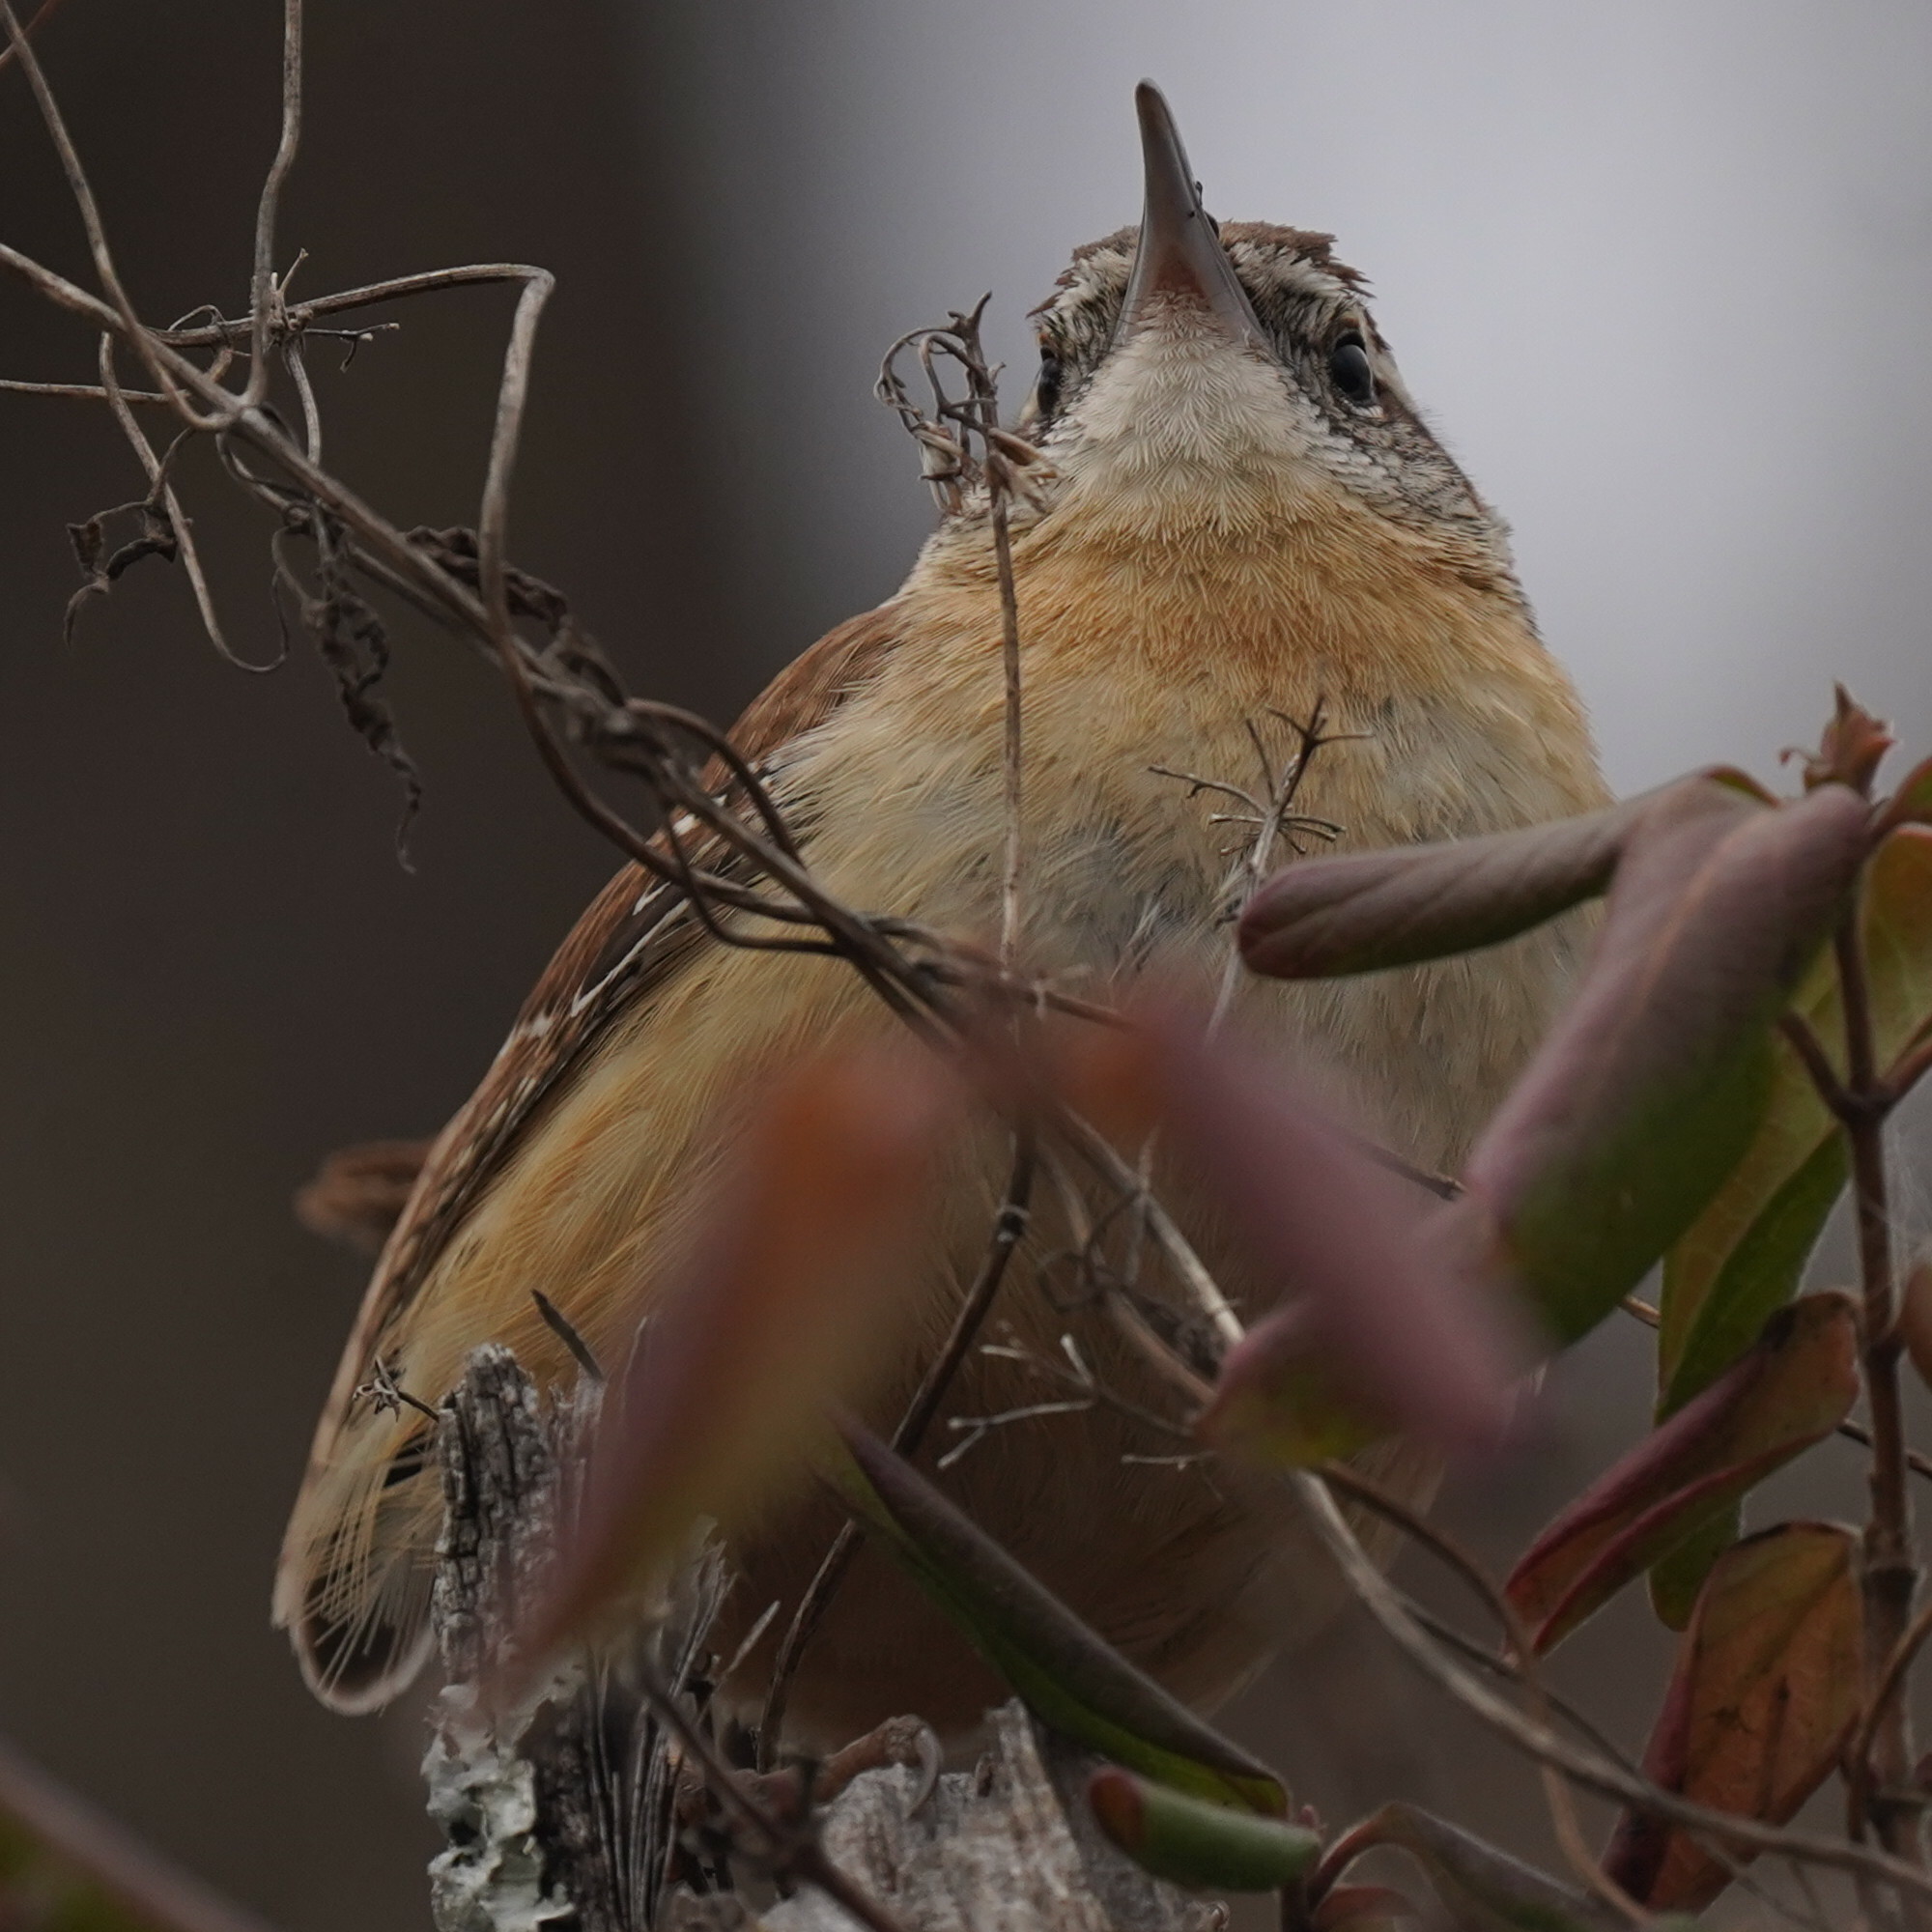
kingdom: Animalia
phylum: Chordata
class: Aves
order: Passeriformes
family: Troglodytidae
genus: Thryothorus
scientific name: Thryothorus ludovicianus
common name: Carolina wren
